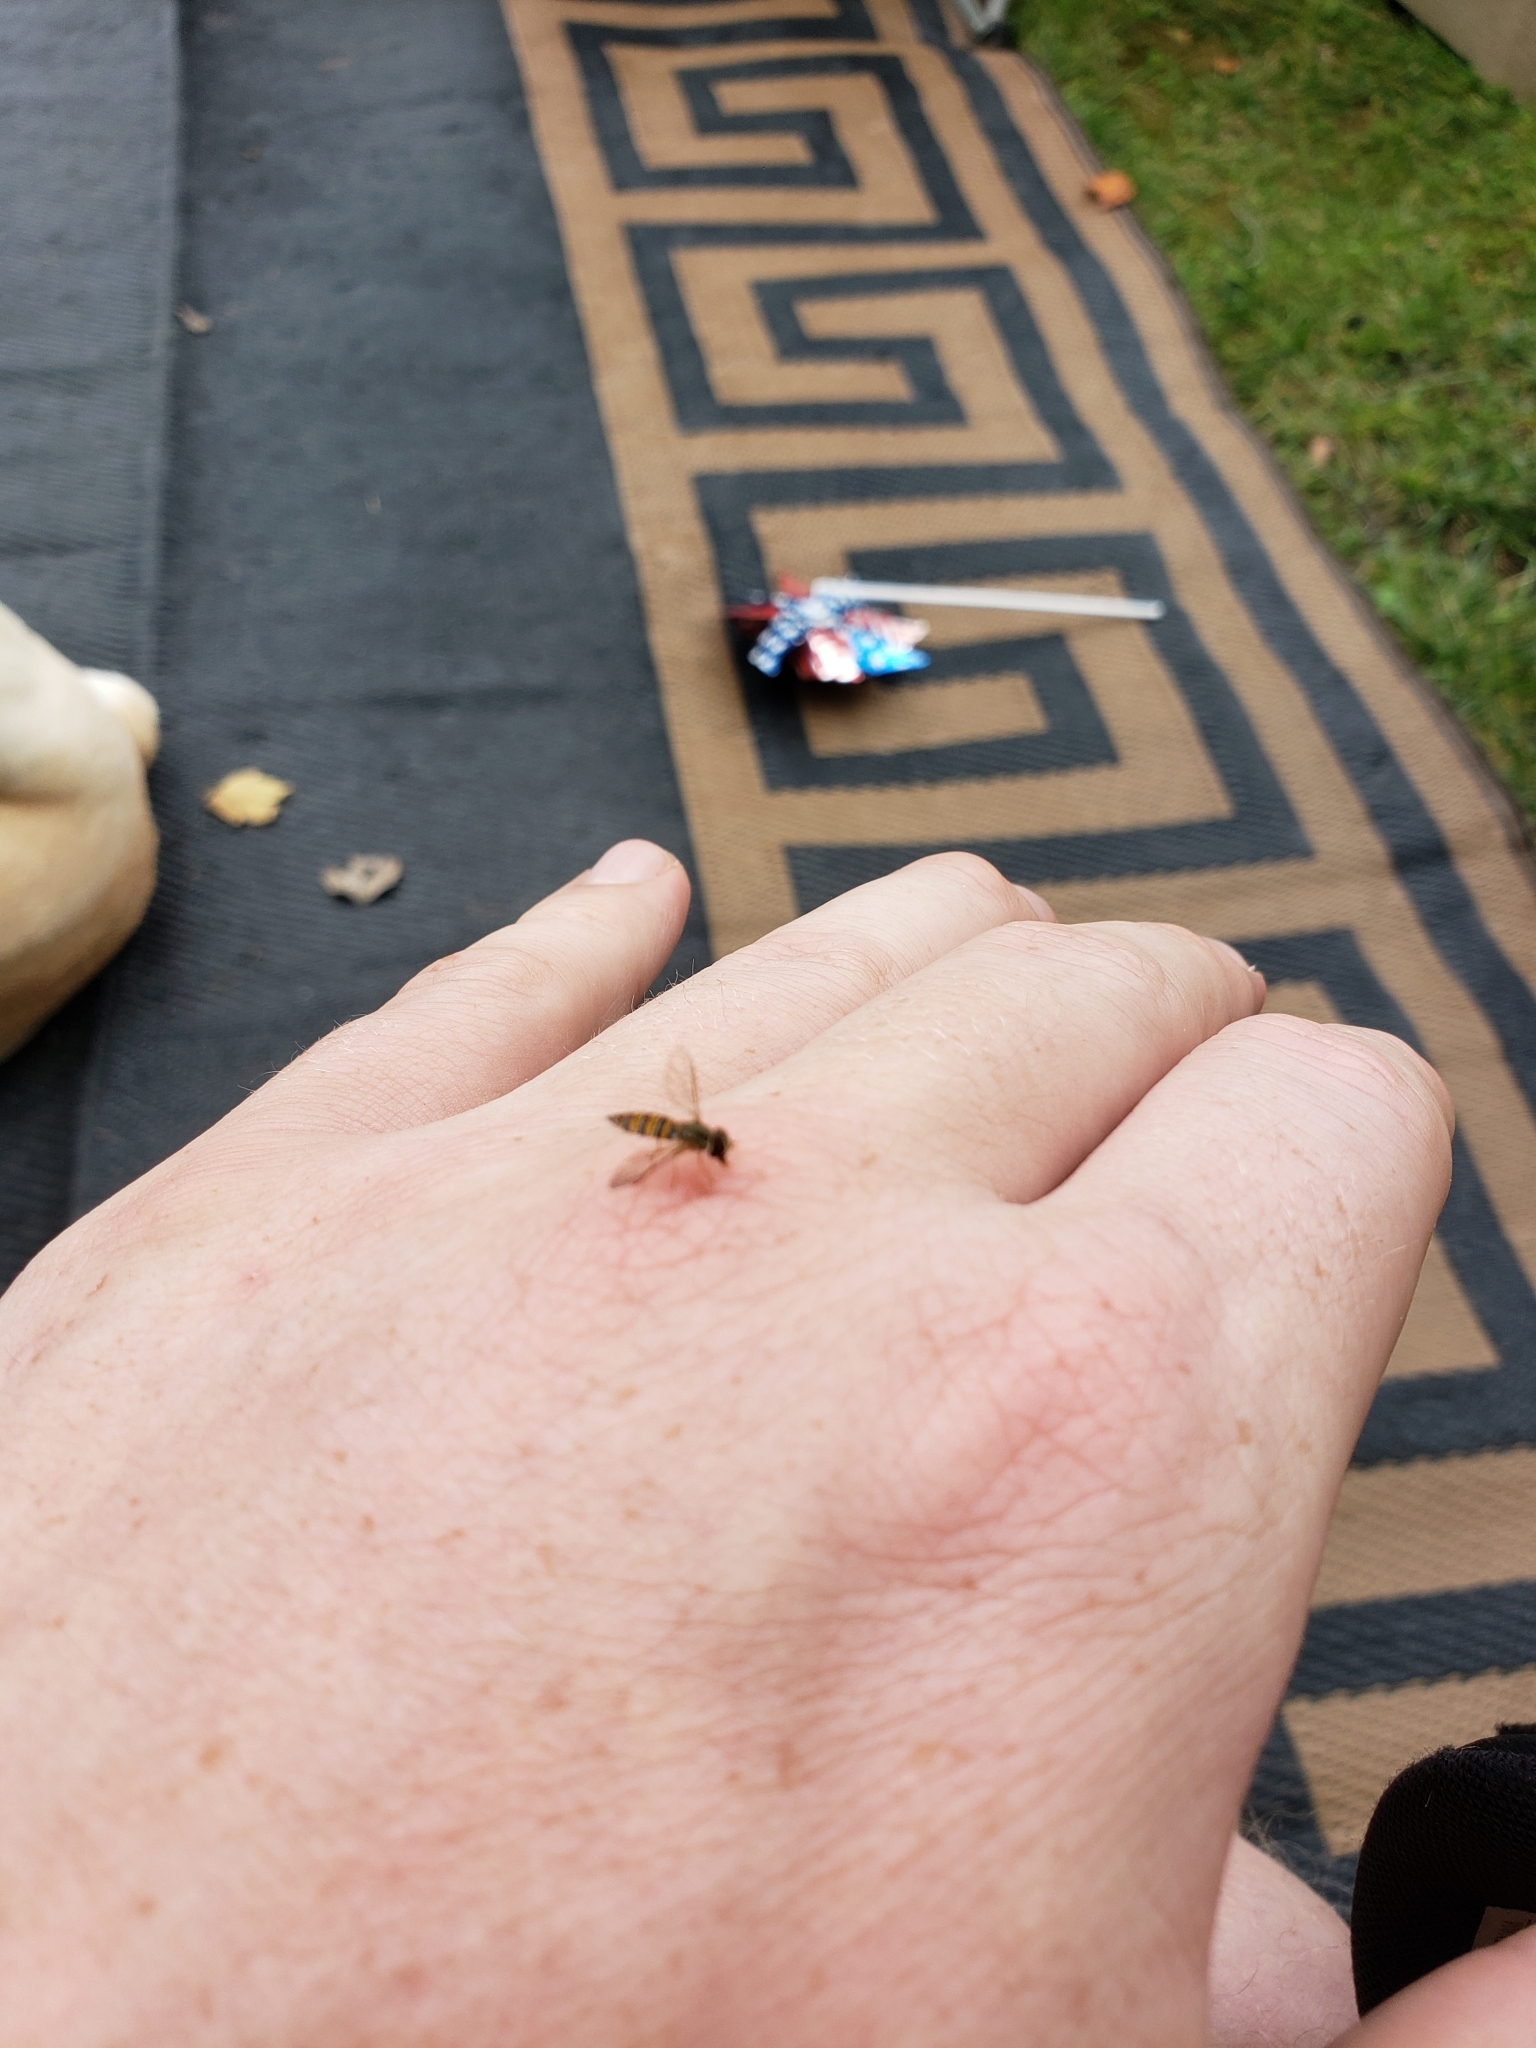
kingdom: Animalia
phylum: Arthropoda
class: Insecta
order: Diptera
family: Syrphidae
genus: Toxomerus
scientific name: Toxomerus politus
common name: Maize calligrapher
